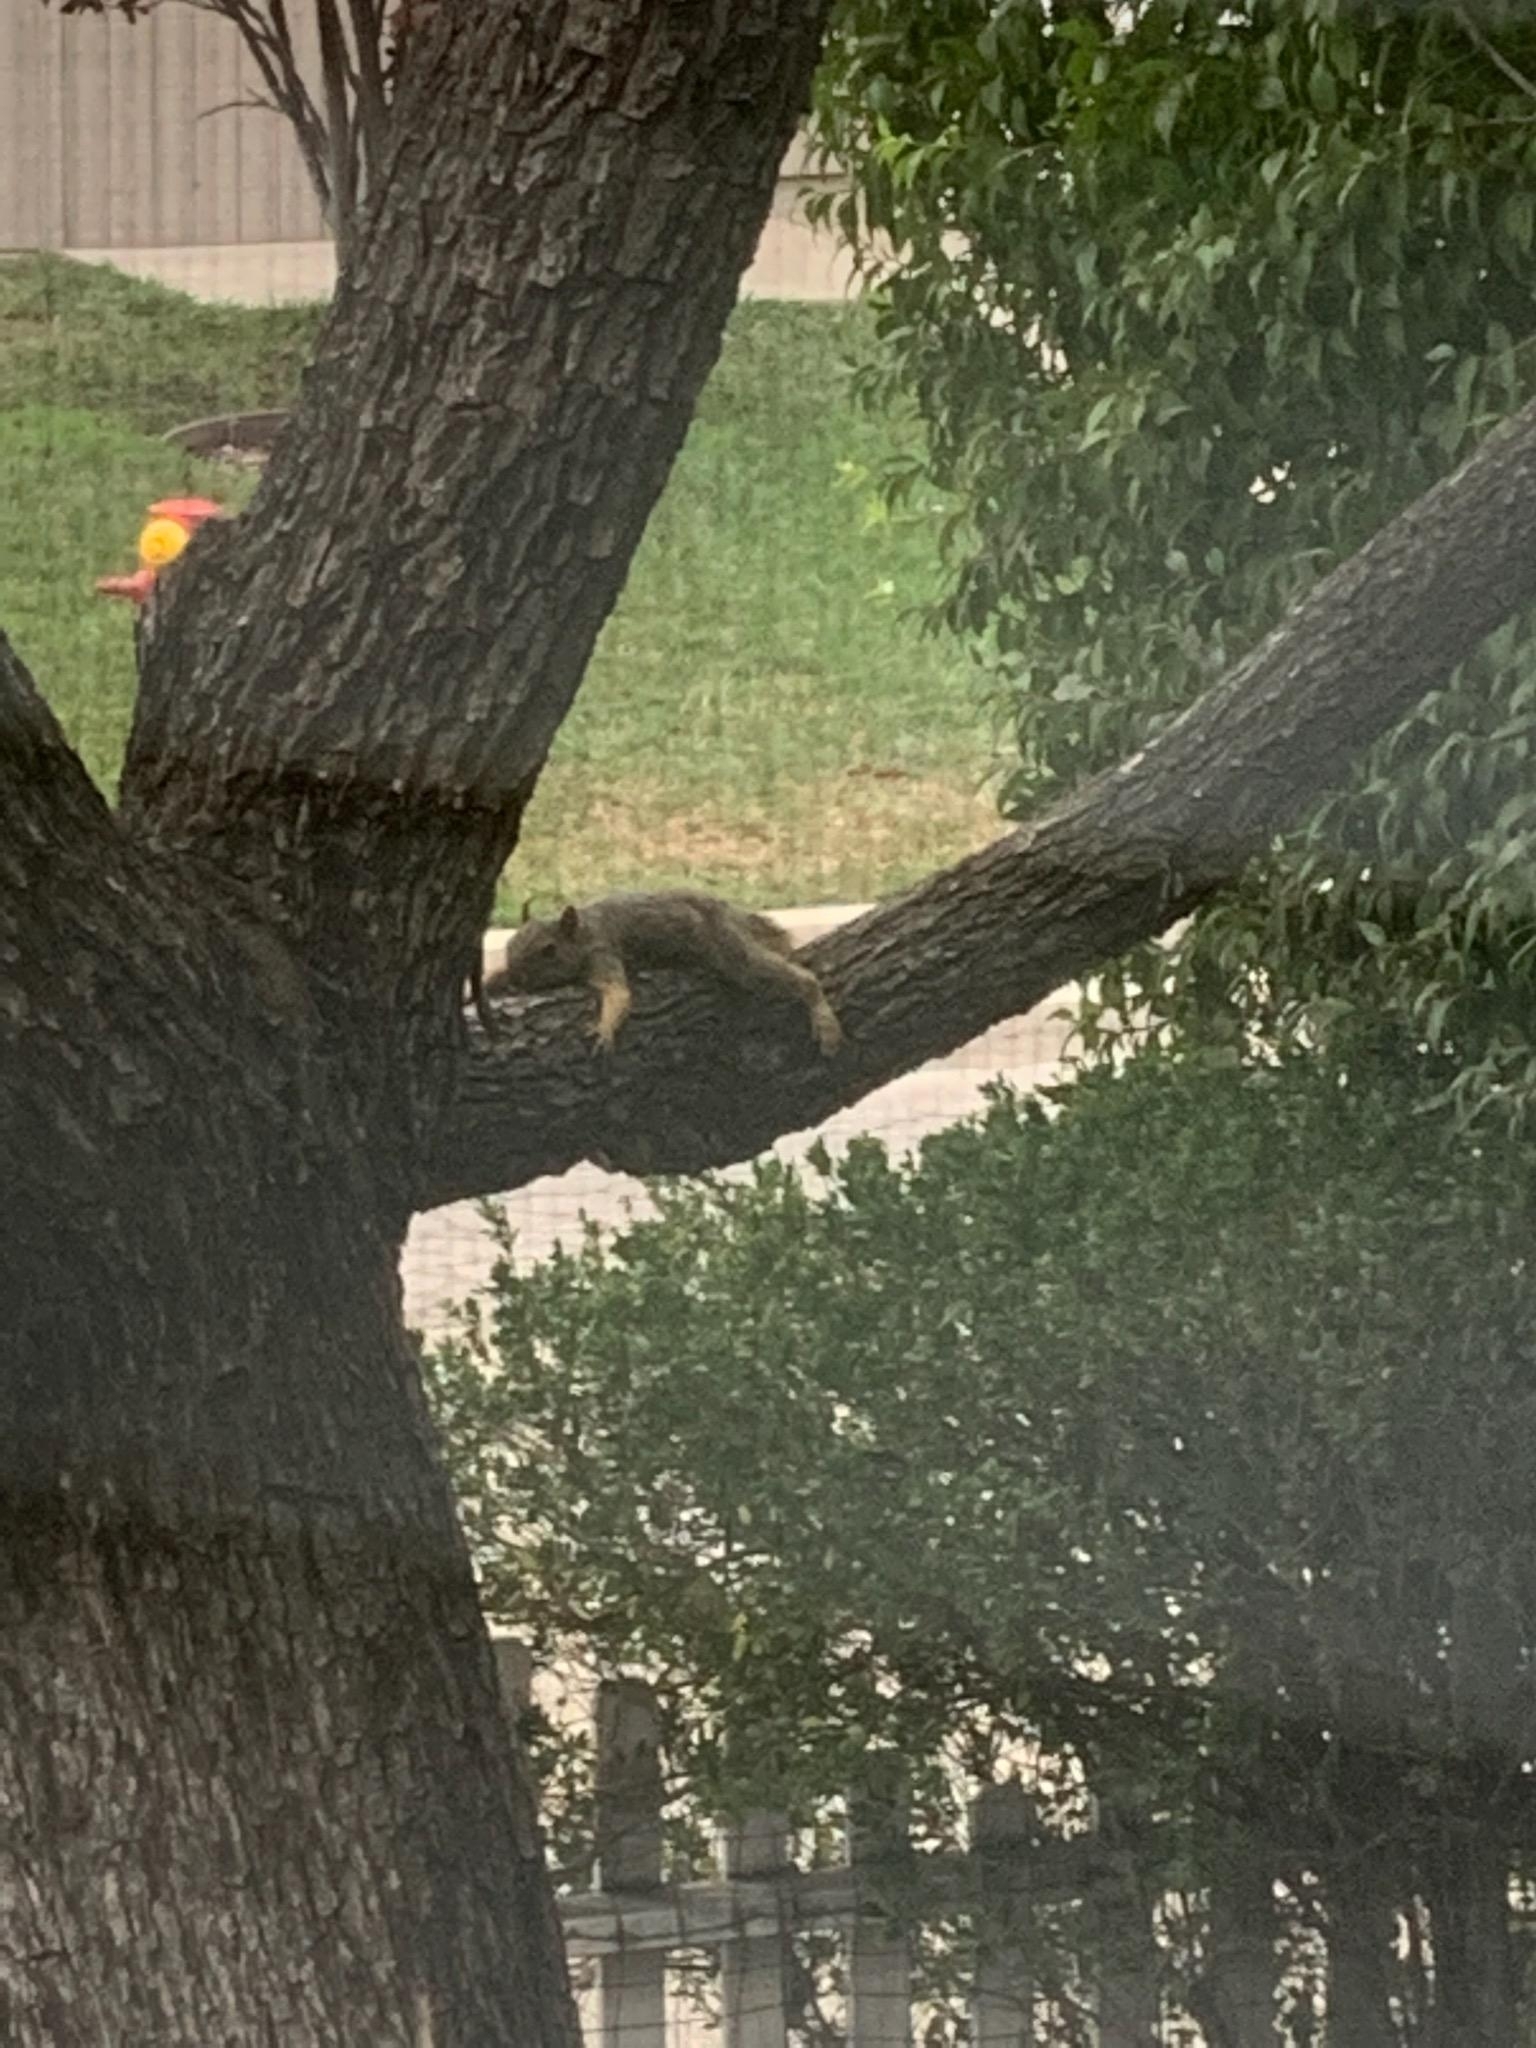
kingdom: Animalia
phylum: Chordata
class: Mammalia
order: Rodentia
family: Sciuridae
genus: Sciurus
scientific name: Sciurus niger
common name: Fox squirrel
